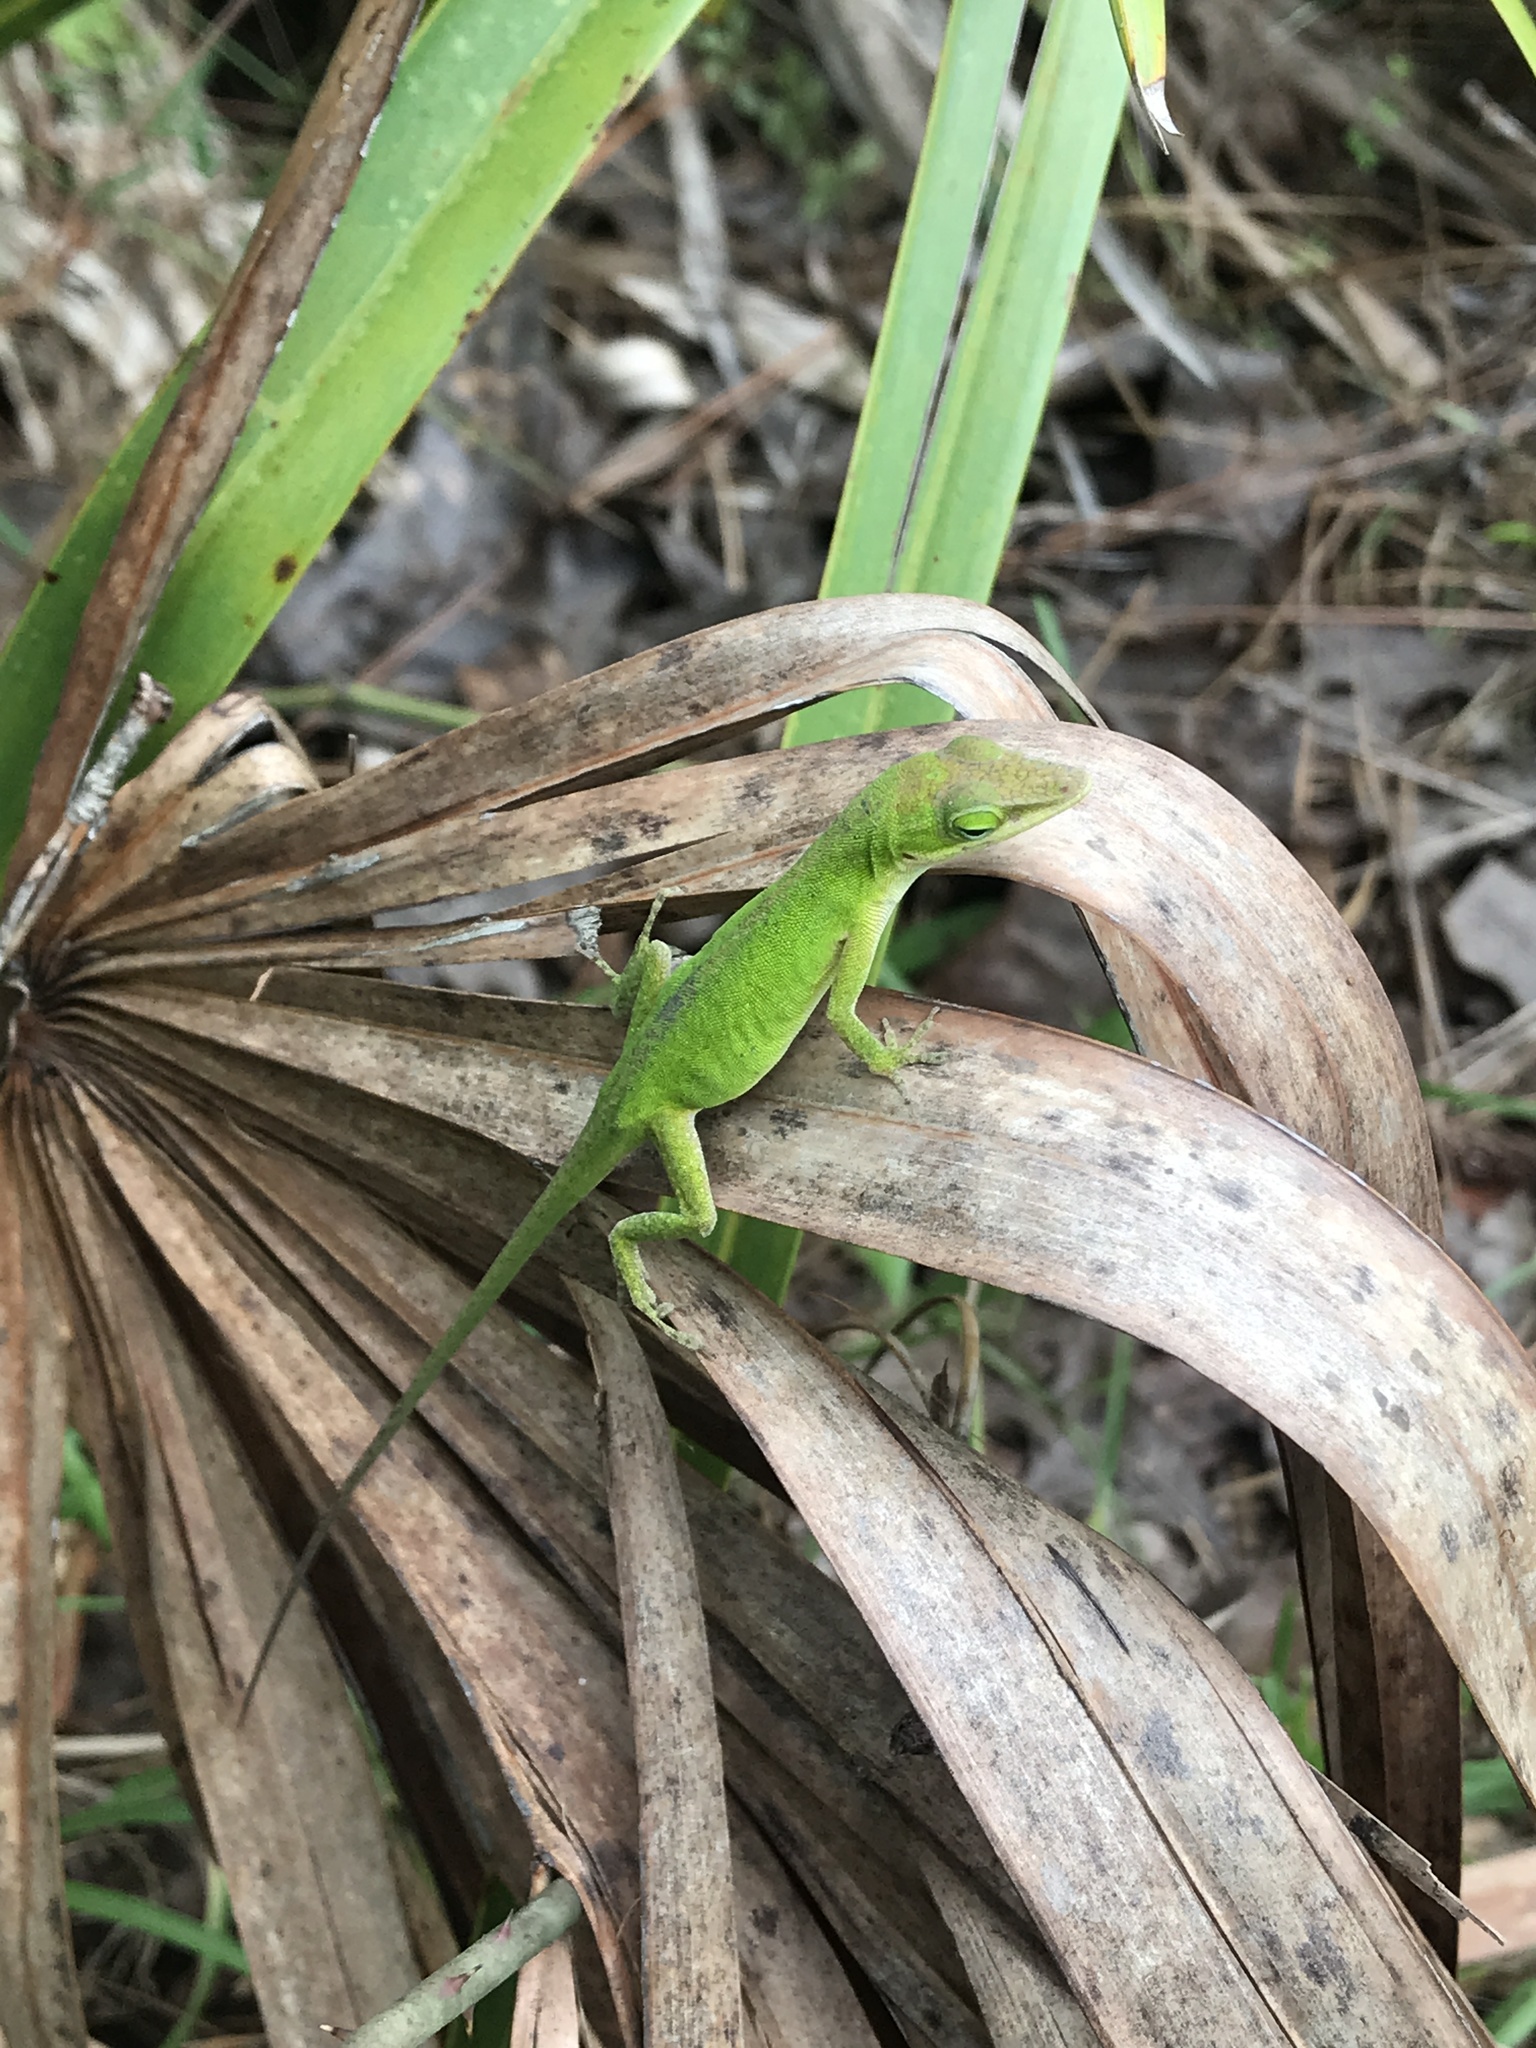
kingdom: Animalia
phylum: Chordata
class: Squamata
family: Dactyloidae
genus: Anolis
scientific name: Anolis carolinensis
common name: Green anole
